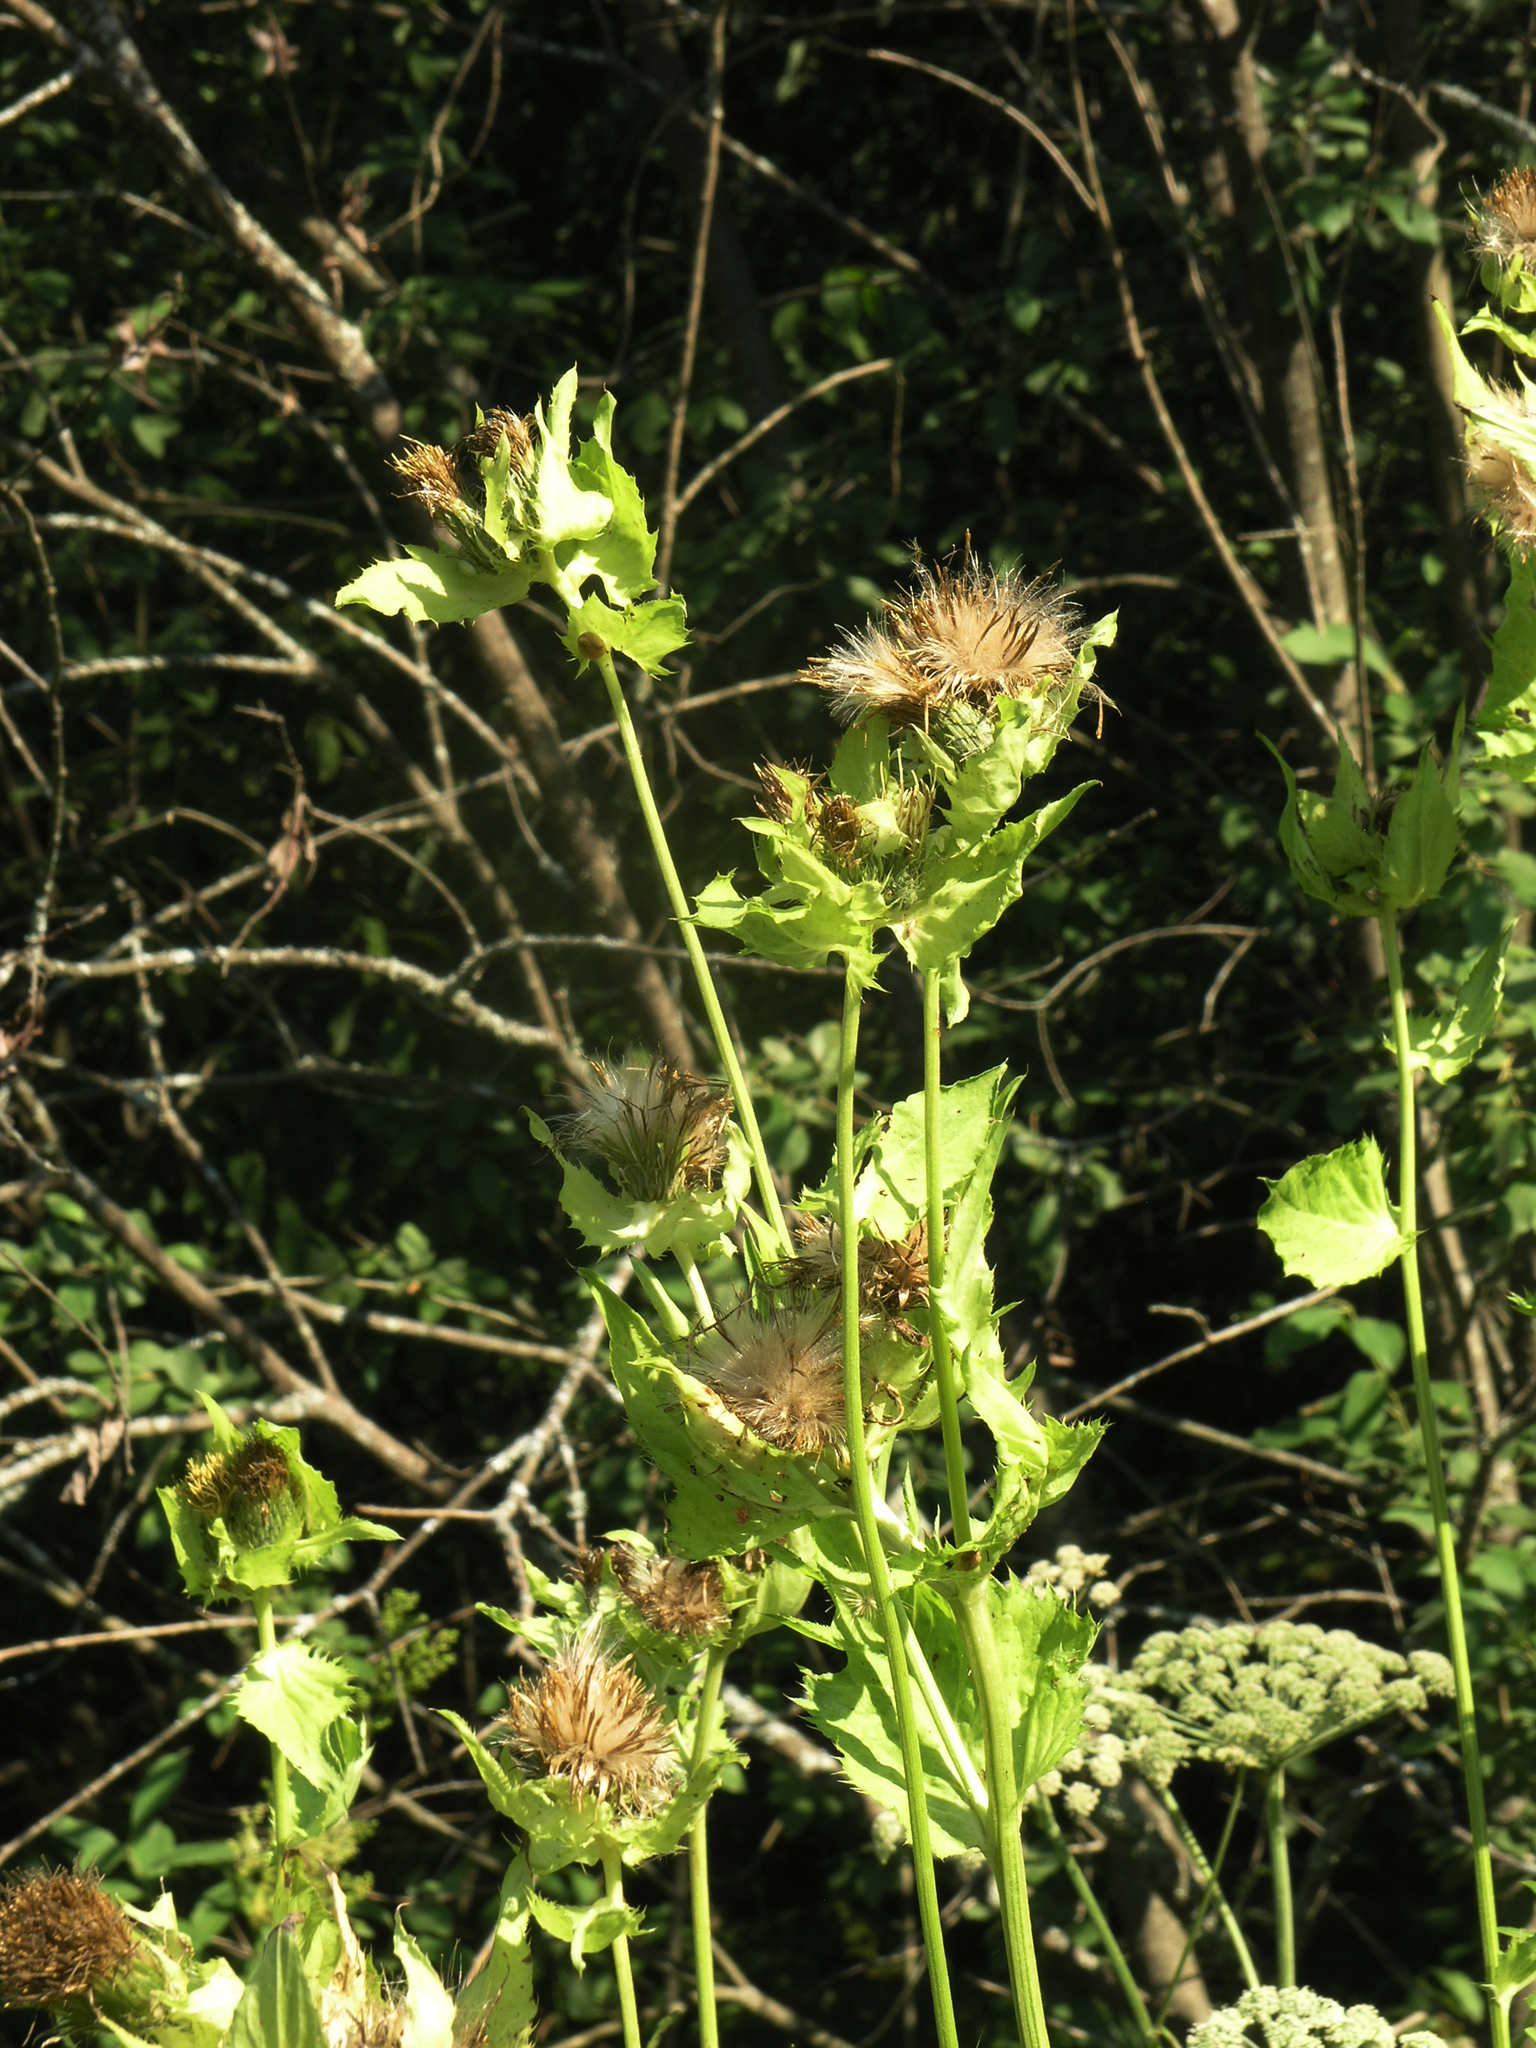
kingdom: Plantae
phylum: Tracheophyta
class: Magnoliopsida
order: Asterales
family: Asteraceae
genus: Cirsium
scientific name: Cirsium oleraceum
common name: Cabbage thistle
